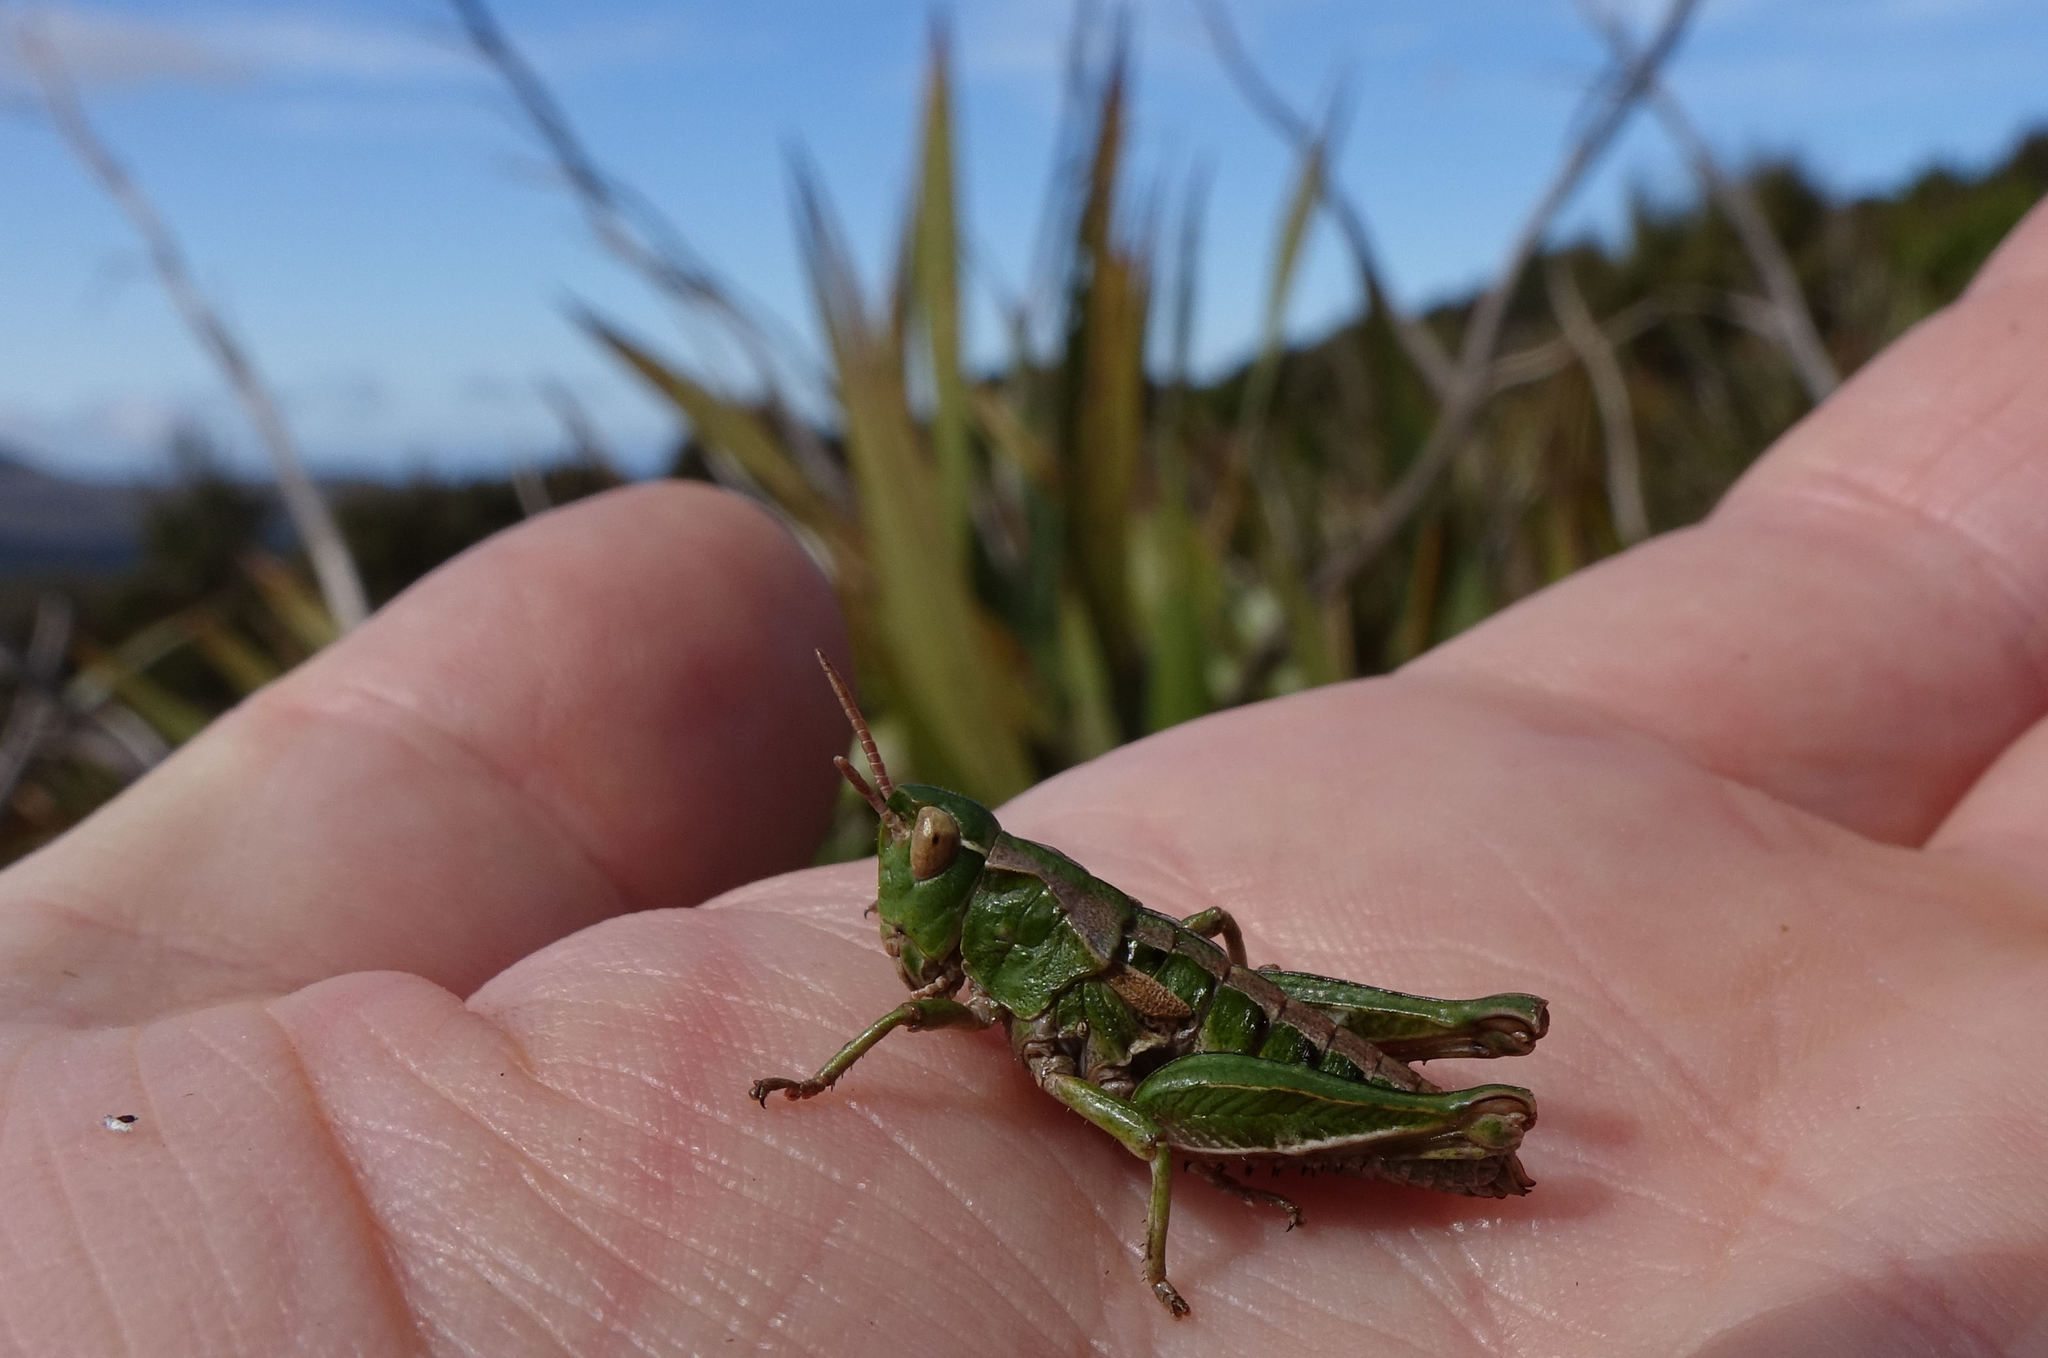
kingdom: Animalia
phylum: Arthropoda
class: Insecta
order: Orthoptera
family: Acrididae
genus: Sigaus
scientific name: Sigaus campestris
